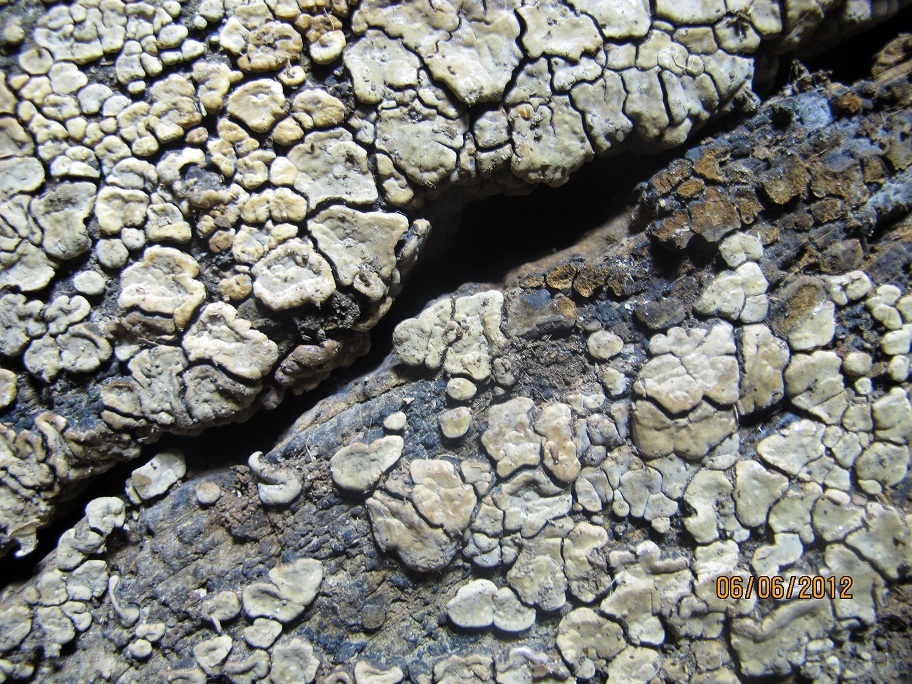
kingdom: Fungi
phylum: Basidiomycota
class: Agaricomycetes
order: Russulales
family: Stereaceae
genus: Xylobolus
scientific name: Xylobolus frustulatus
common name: Ceramic parchment
